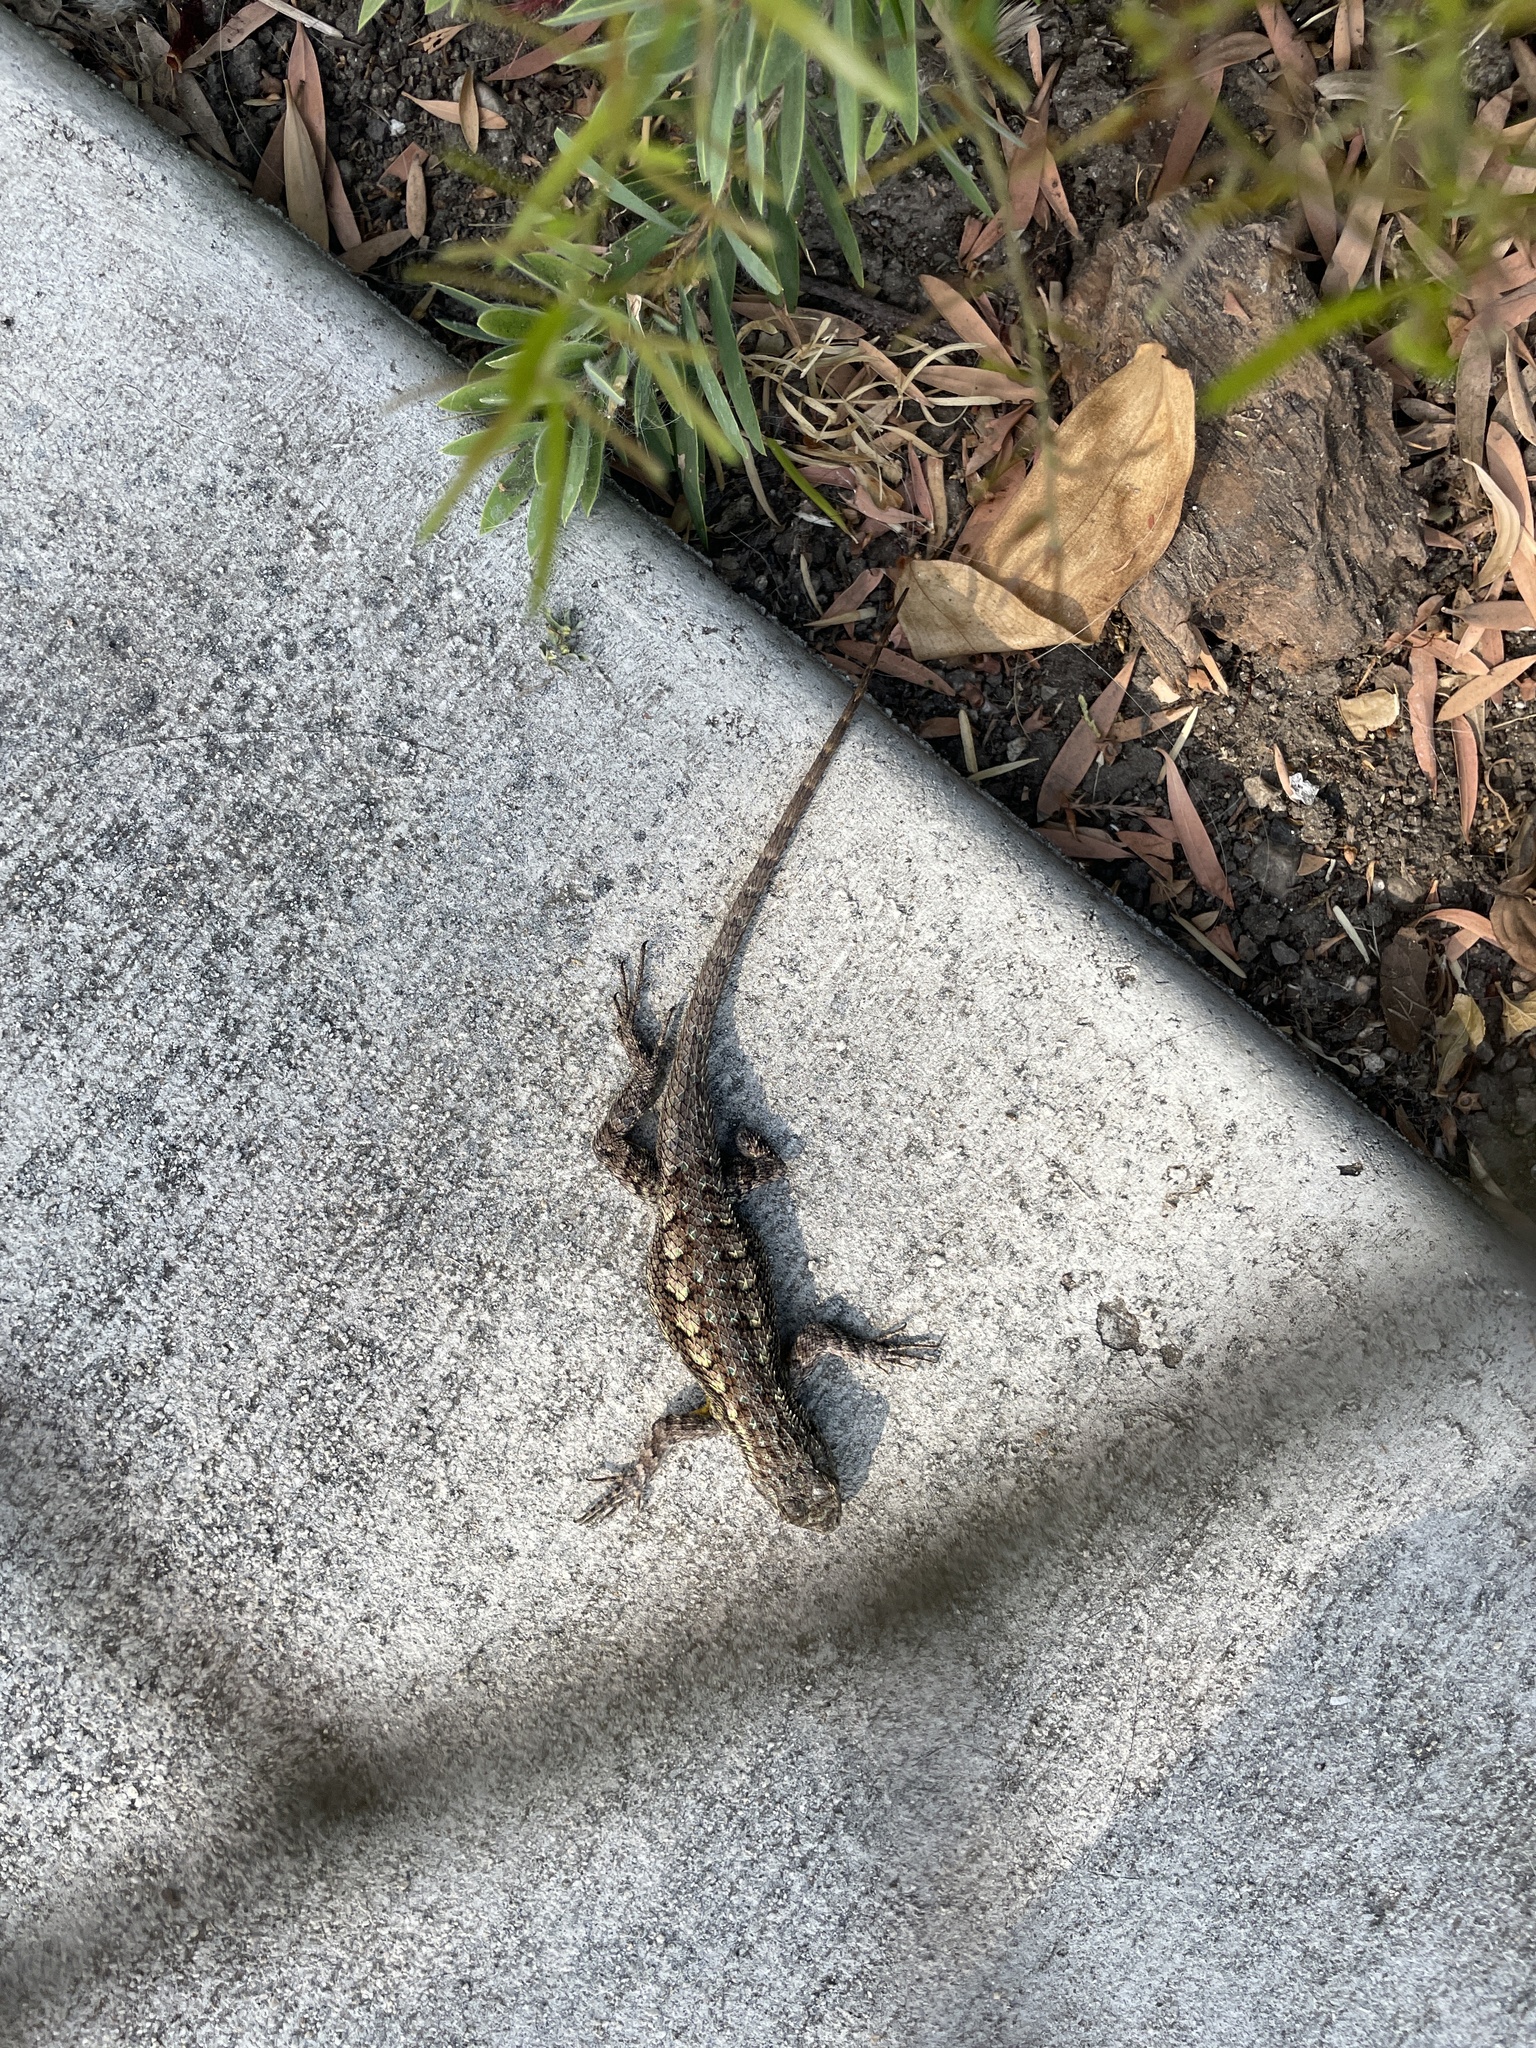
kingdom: Animalia
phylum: Chordata
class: Squamata
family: Phrynosomatidae
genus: Sceloporus
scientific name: Sceloporus occidentalis
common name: Western fence lizard
